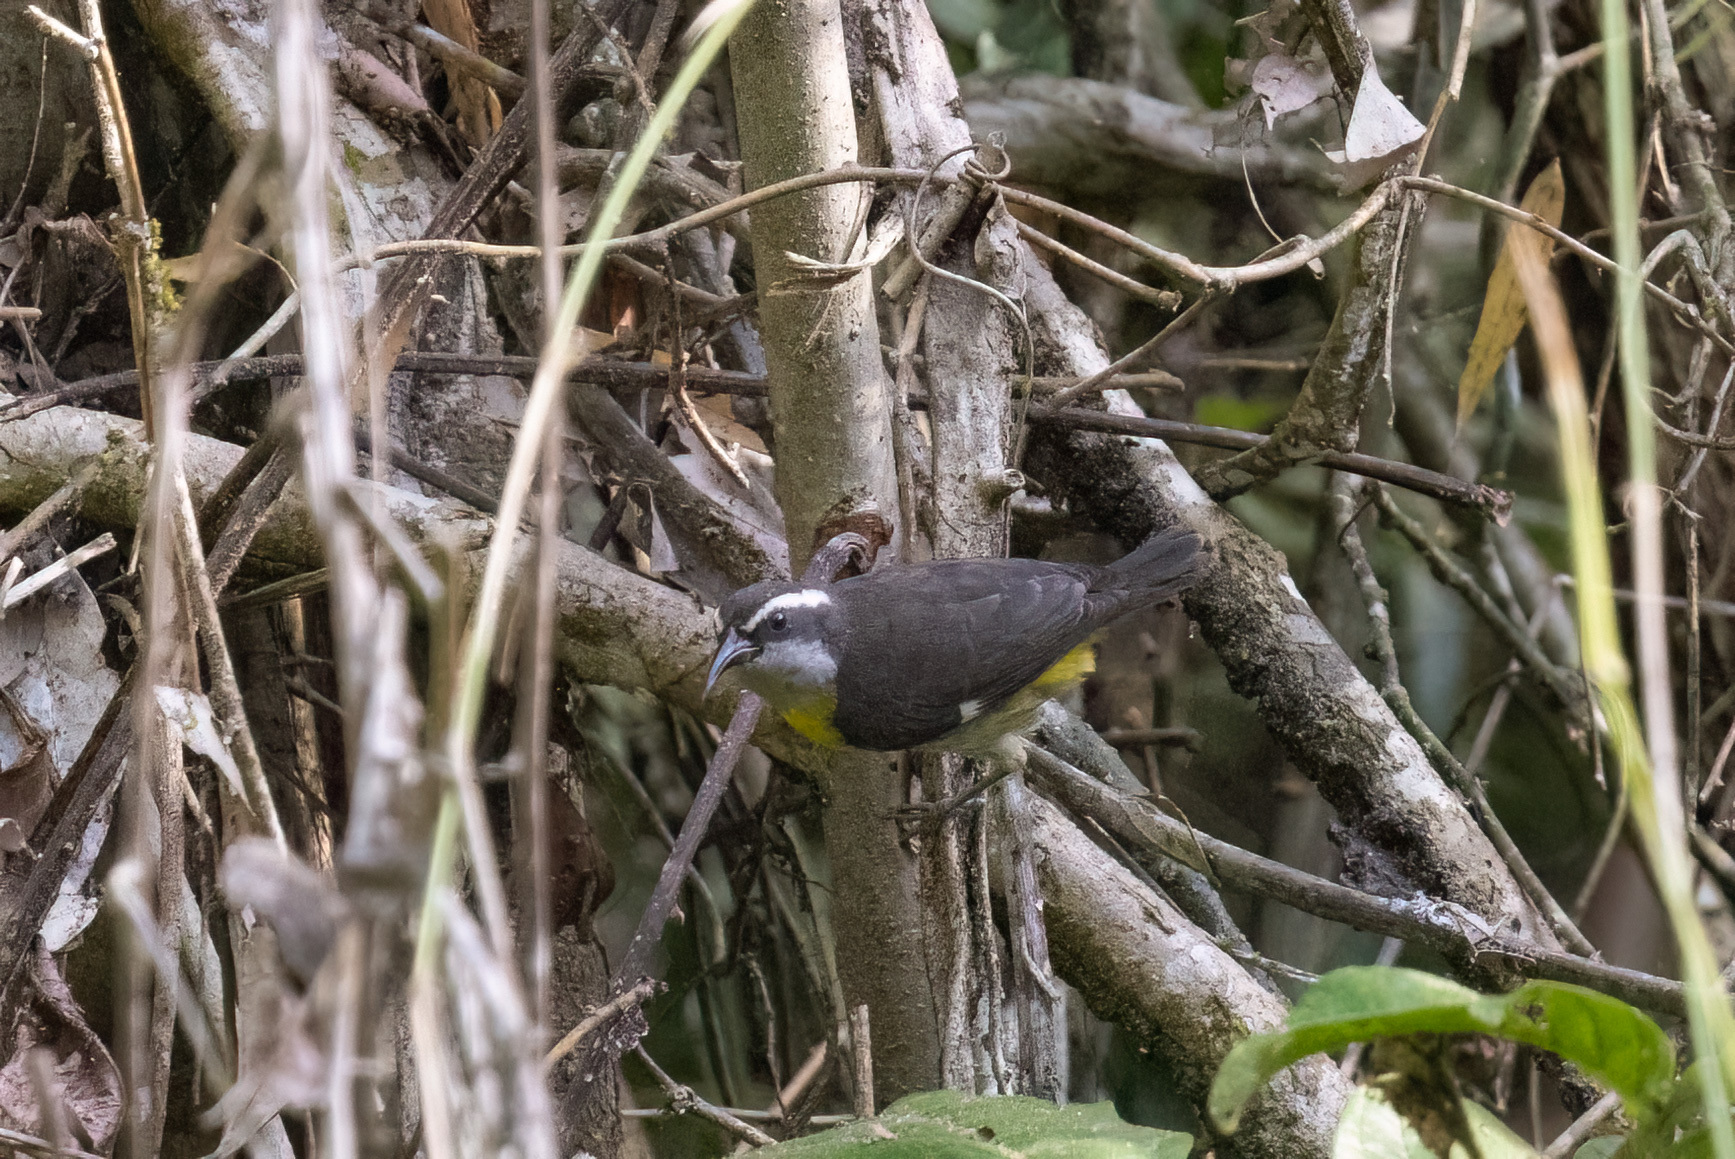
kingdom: Animalia
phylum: Chordata
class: Aves
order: Passeriformes
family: Thraupidae
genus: Coereba
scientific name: Coereba flaveola
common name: Bananaquit
